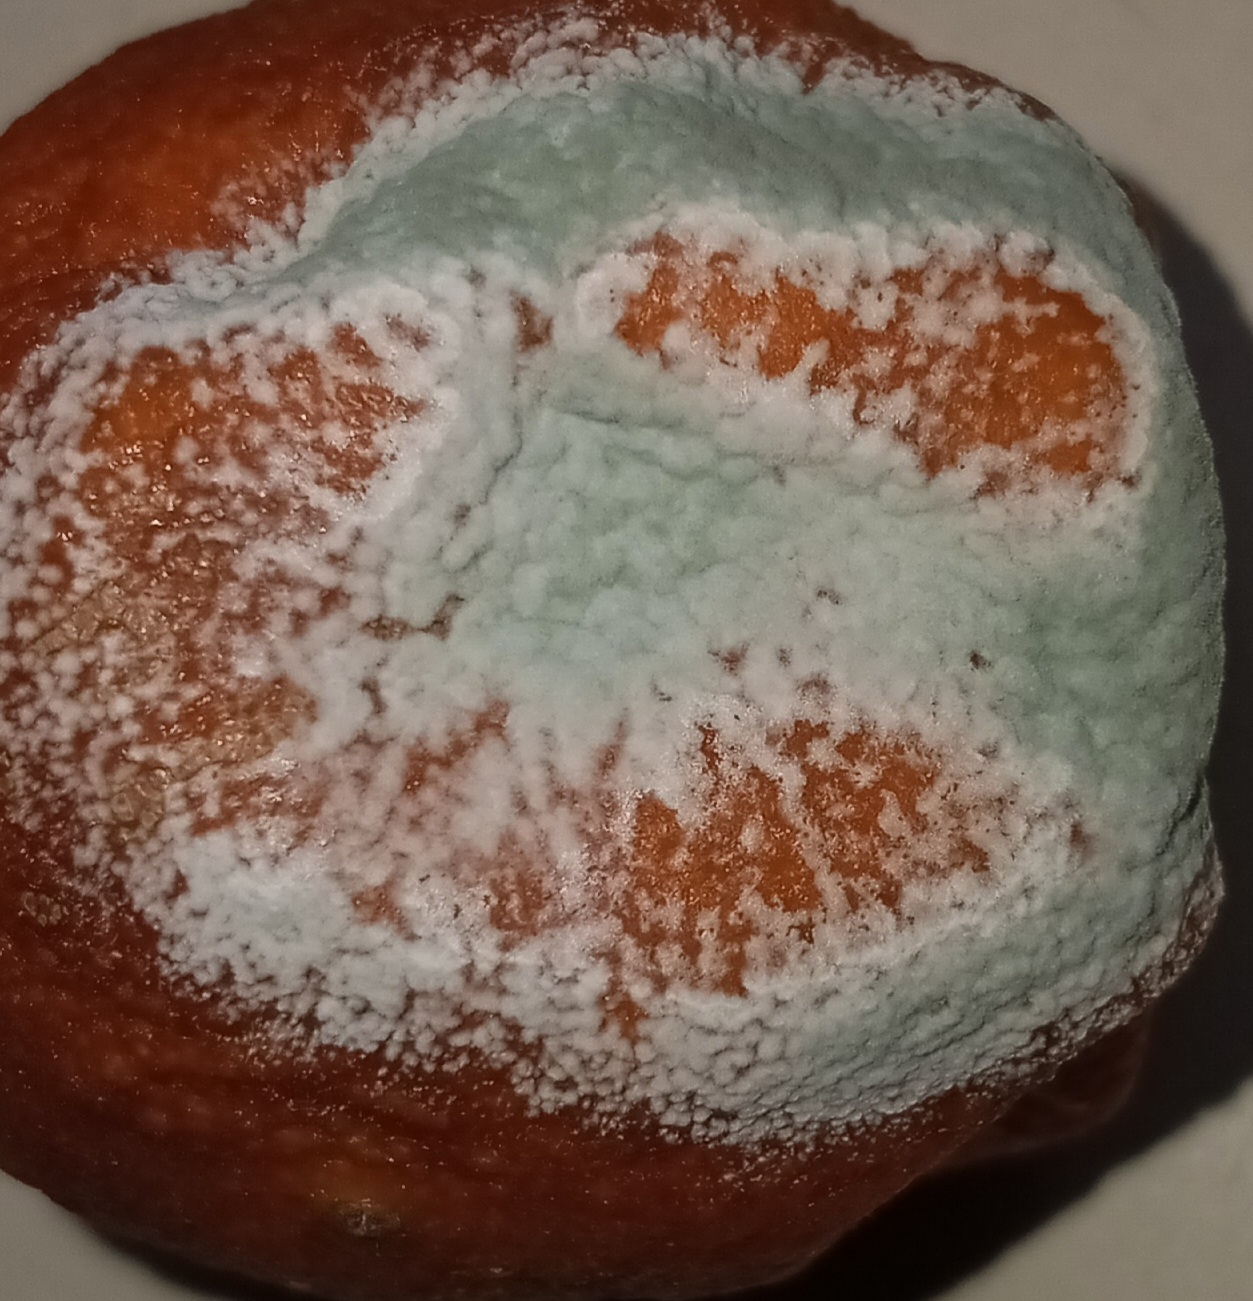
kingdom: Fungi
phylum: Ascomycota
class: Eurotiomycetes
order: Eurotiales
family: Aspergillaceae
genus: Penicillium
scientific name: Penicillium digitatum
